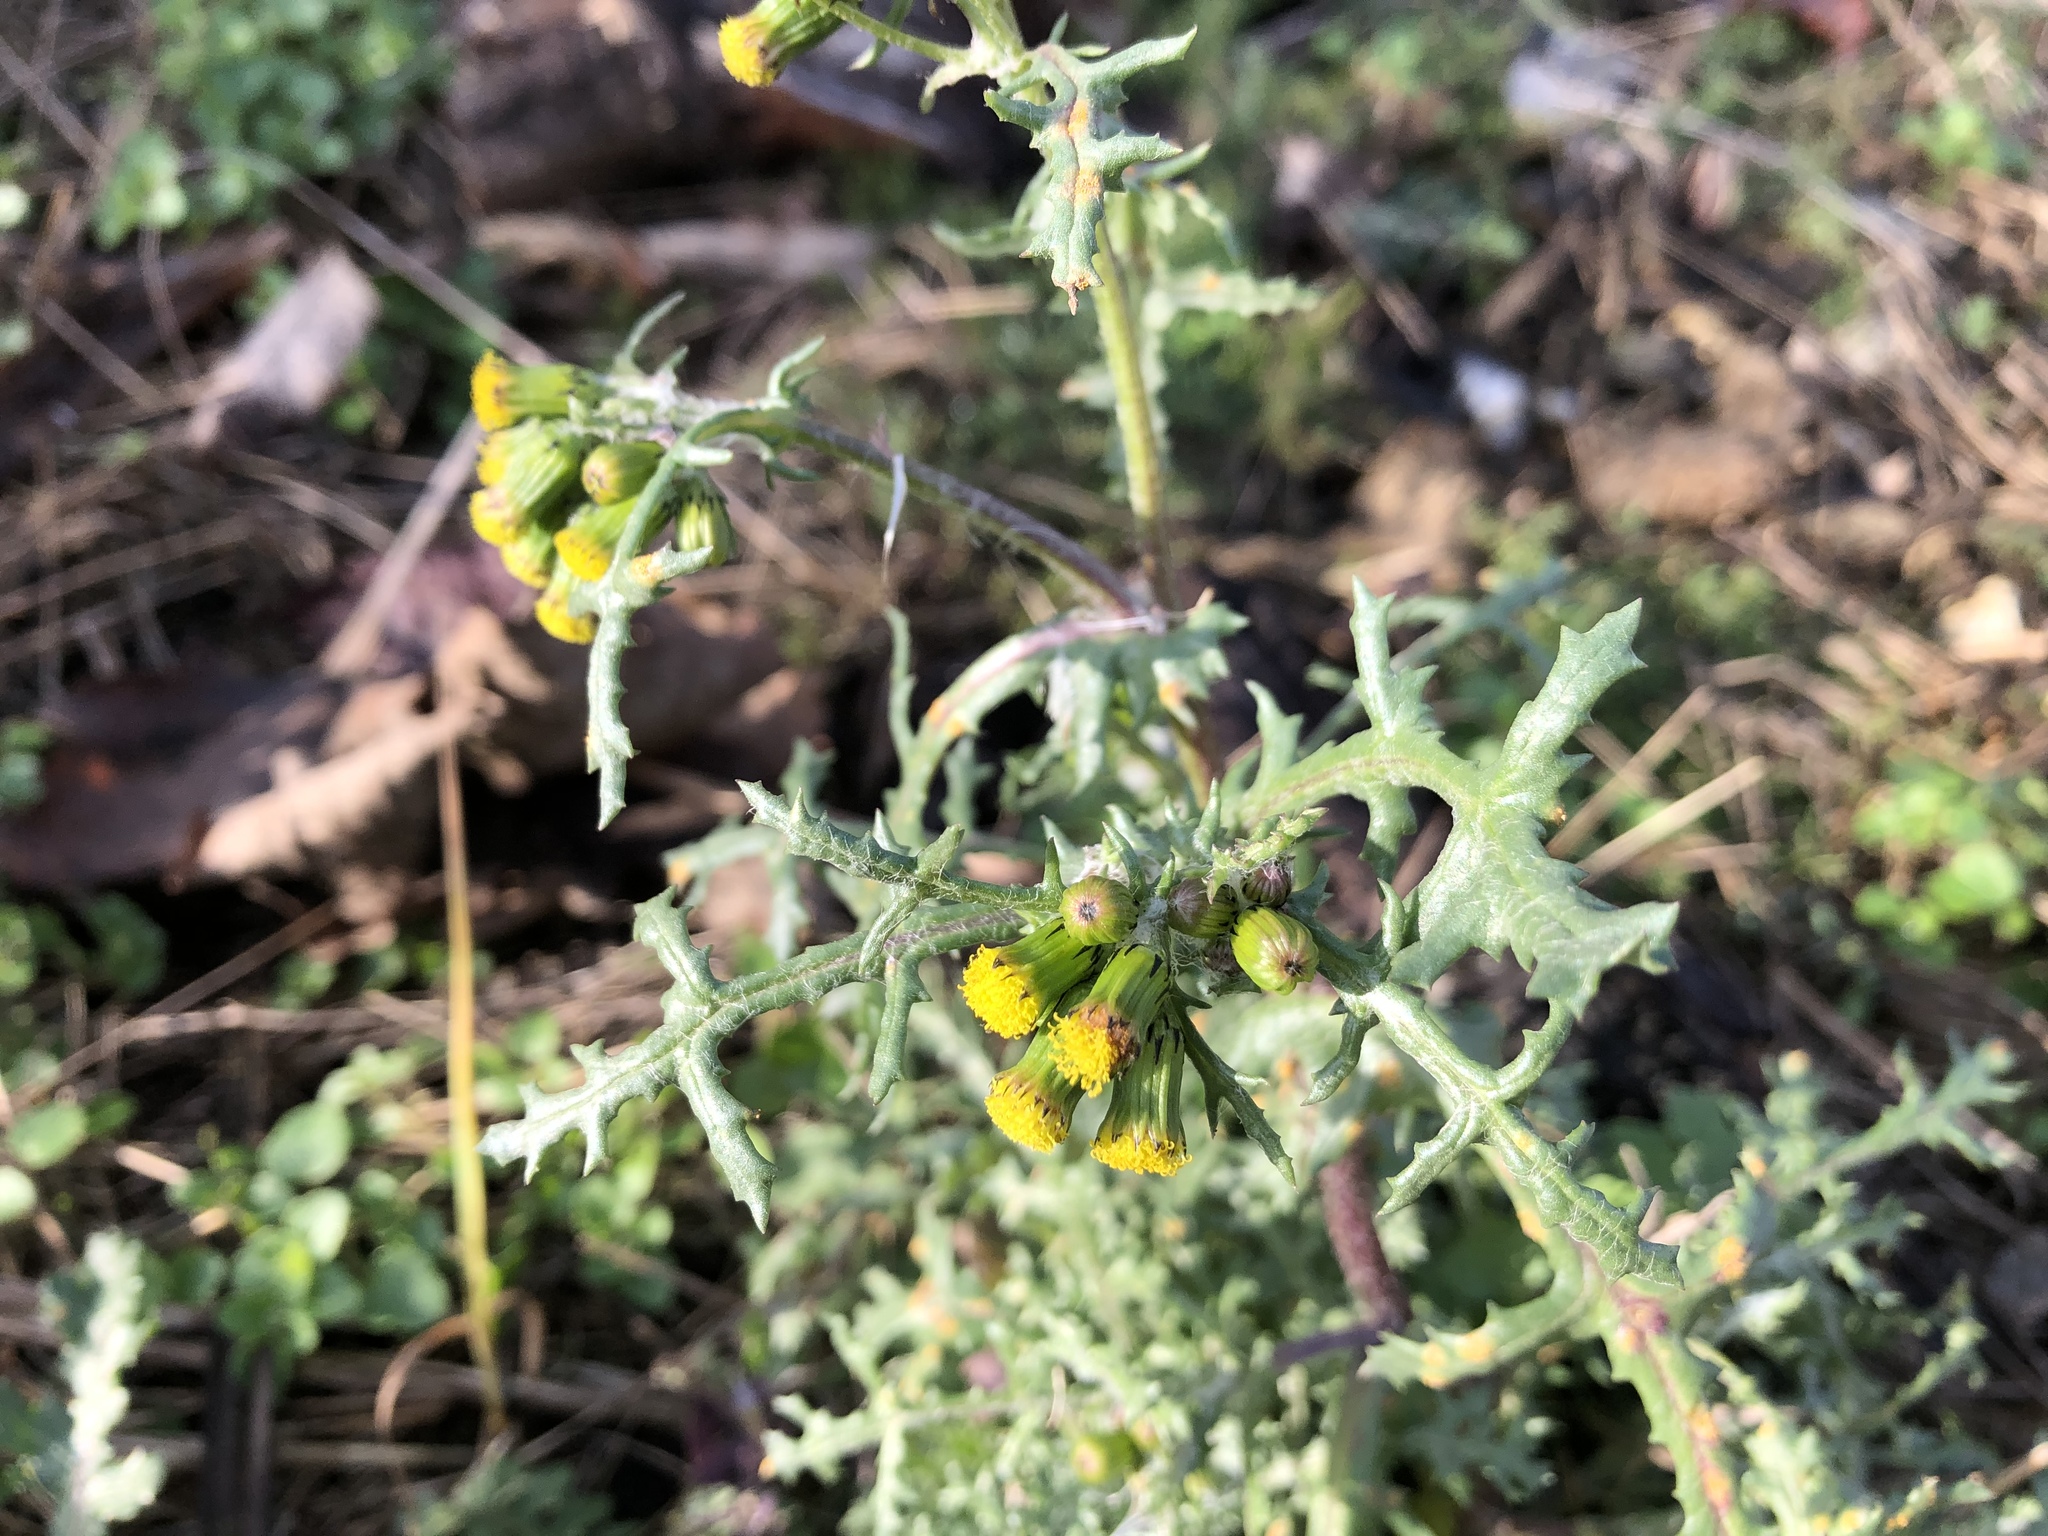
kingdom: Plantae
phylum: Tracheophyta
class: Magnoliopsida
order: Asterales
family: Asteraceae
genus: Senecio
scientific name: Senecio vulgaris
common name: Old-man-in-the-spring
